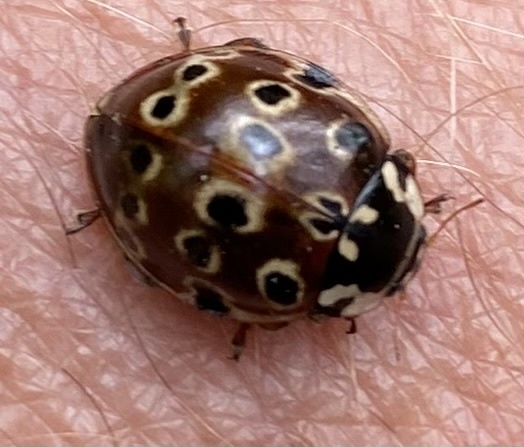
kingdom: Animalia
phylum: Arthropoda
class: Insecta
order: Coleoptera
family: Coccinellidae
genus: Anatis
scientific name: Anatis mali
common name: Eye-spotted lady beetle
